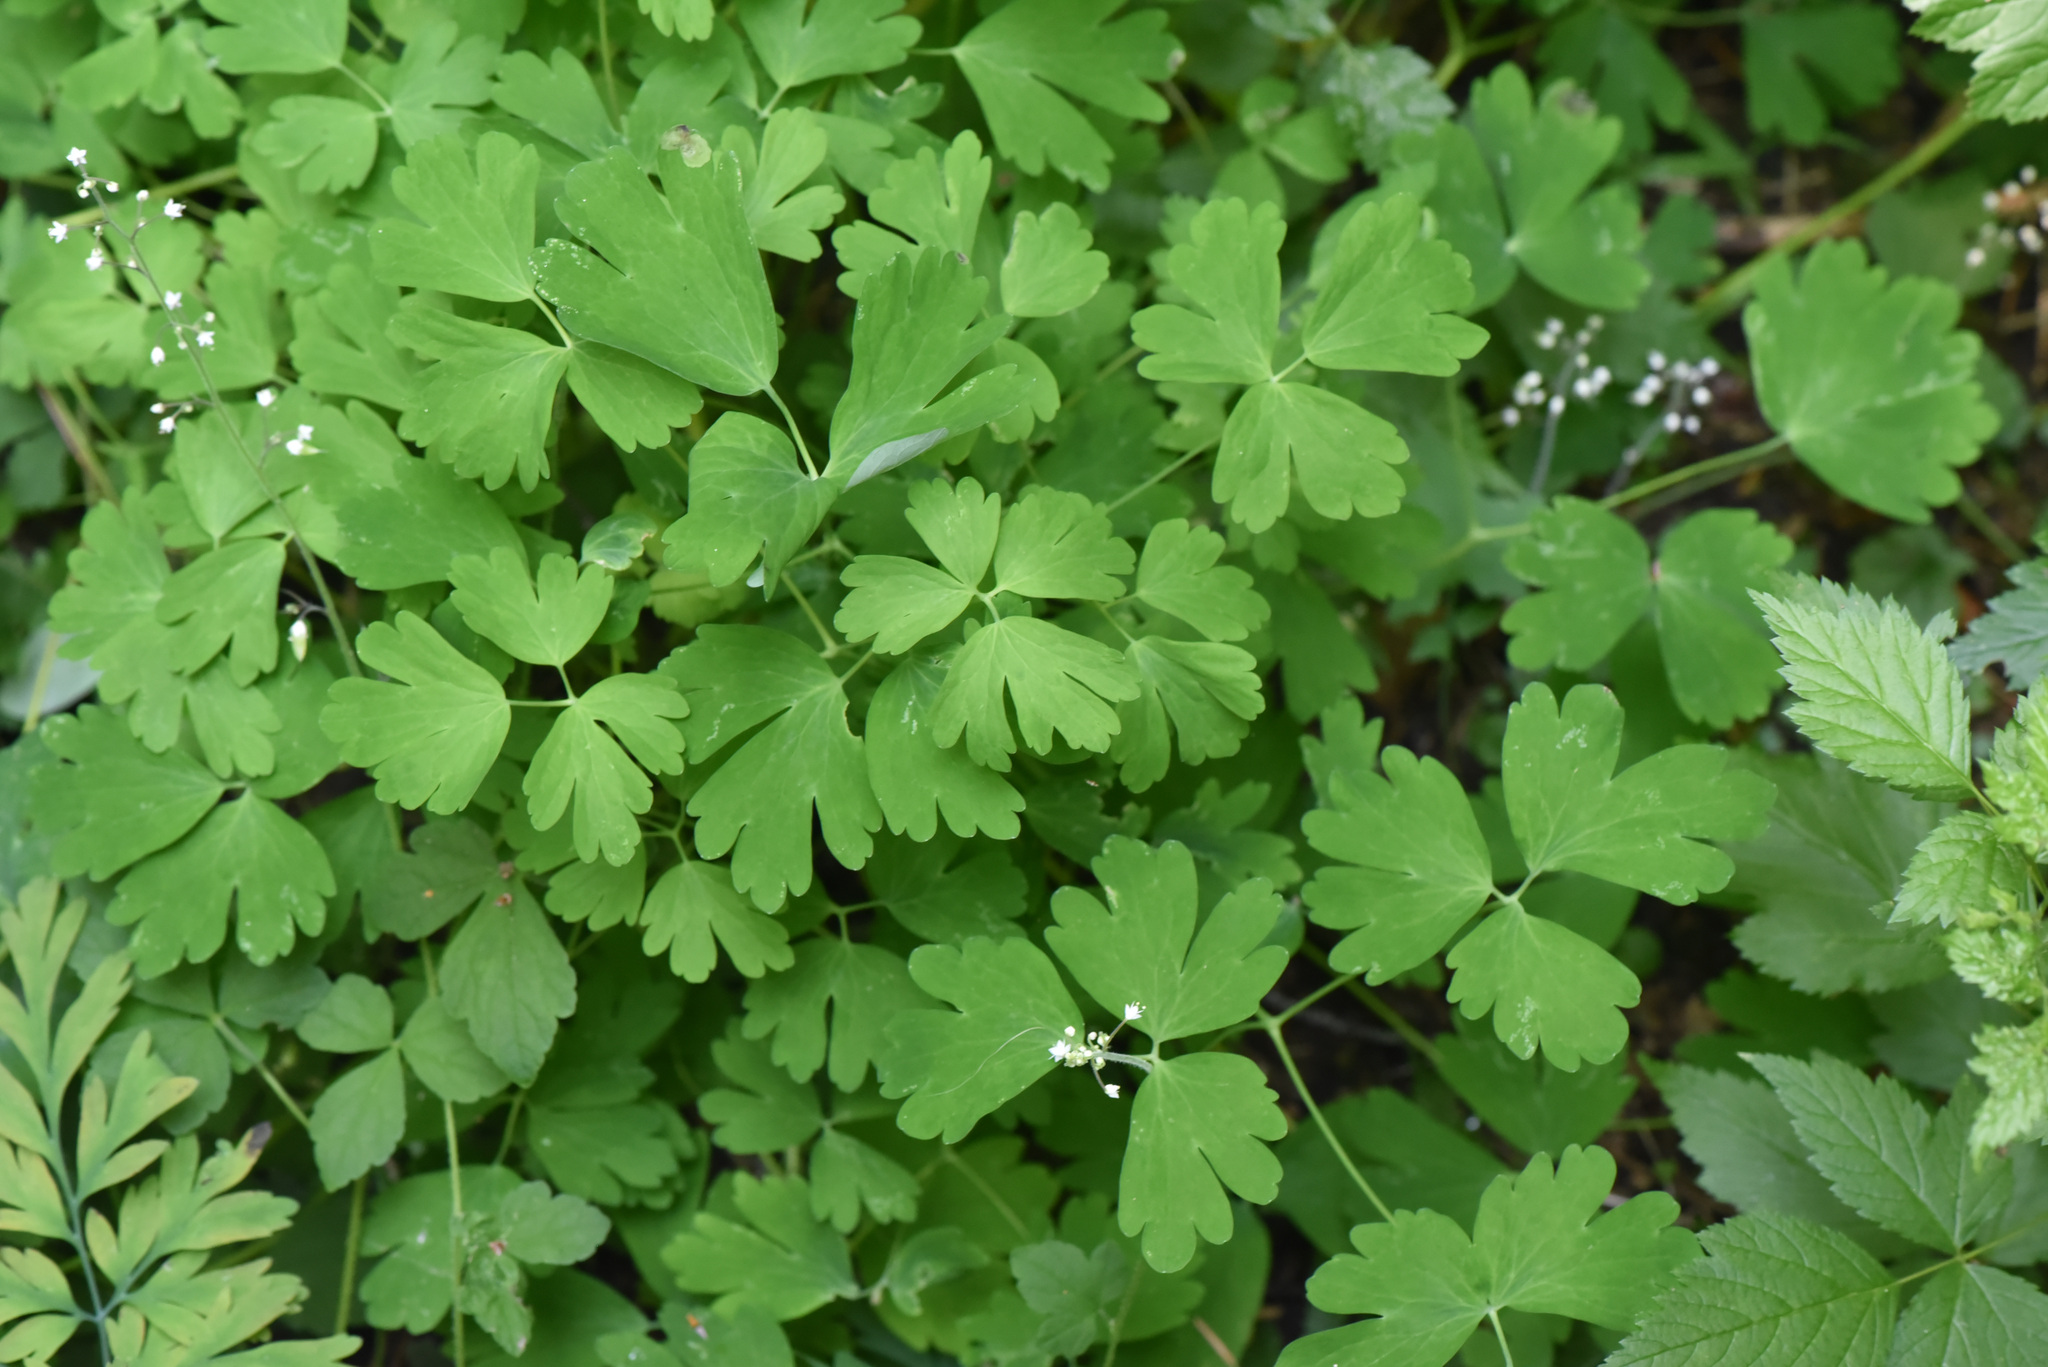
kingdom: Plantae
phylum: Tracheophyta
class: Magnoliopsida
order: Ranunculales
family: Ranunculaceae
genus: Aquilegia
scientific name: Aquilegia formosa
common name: Sitka columbine
